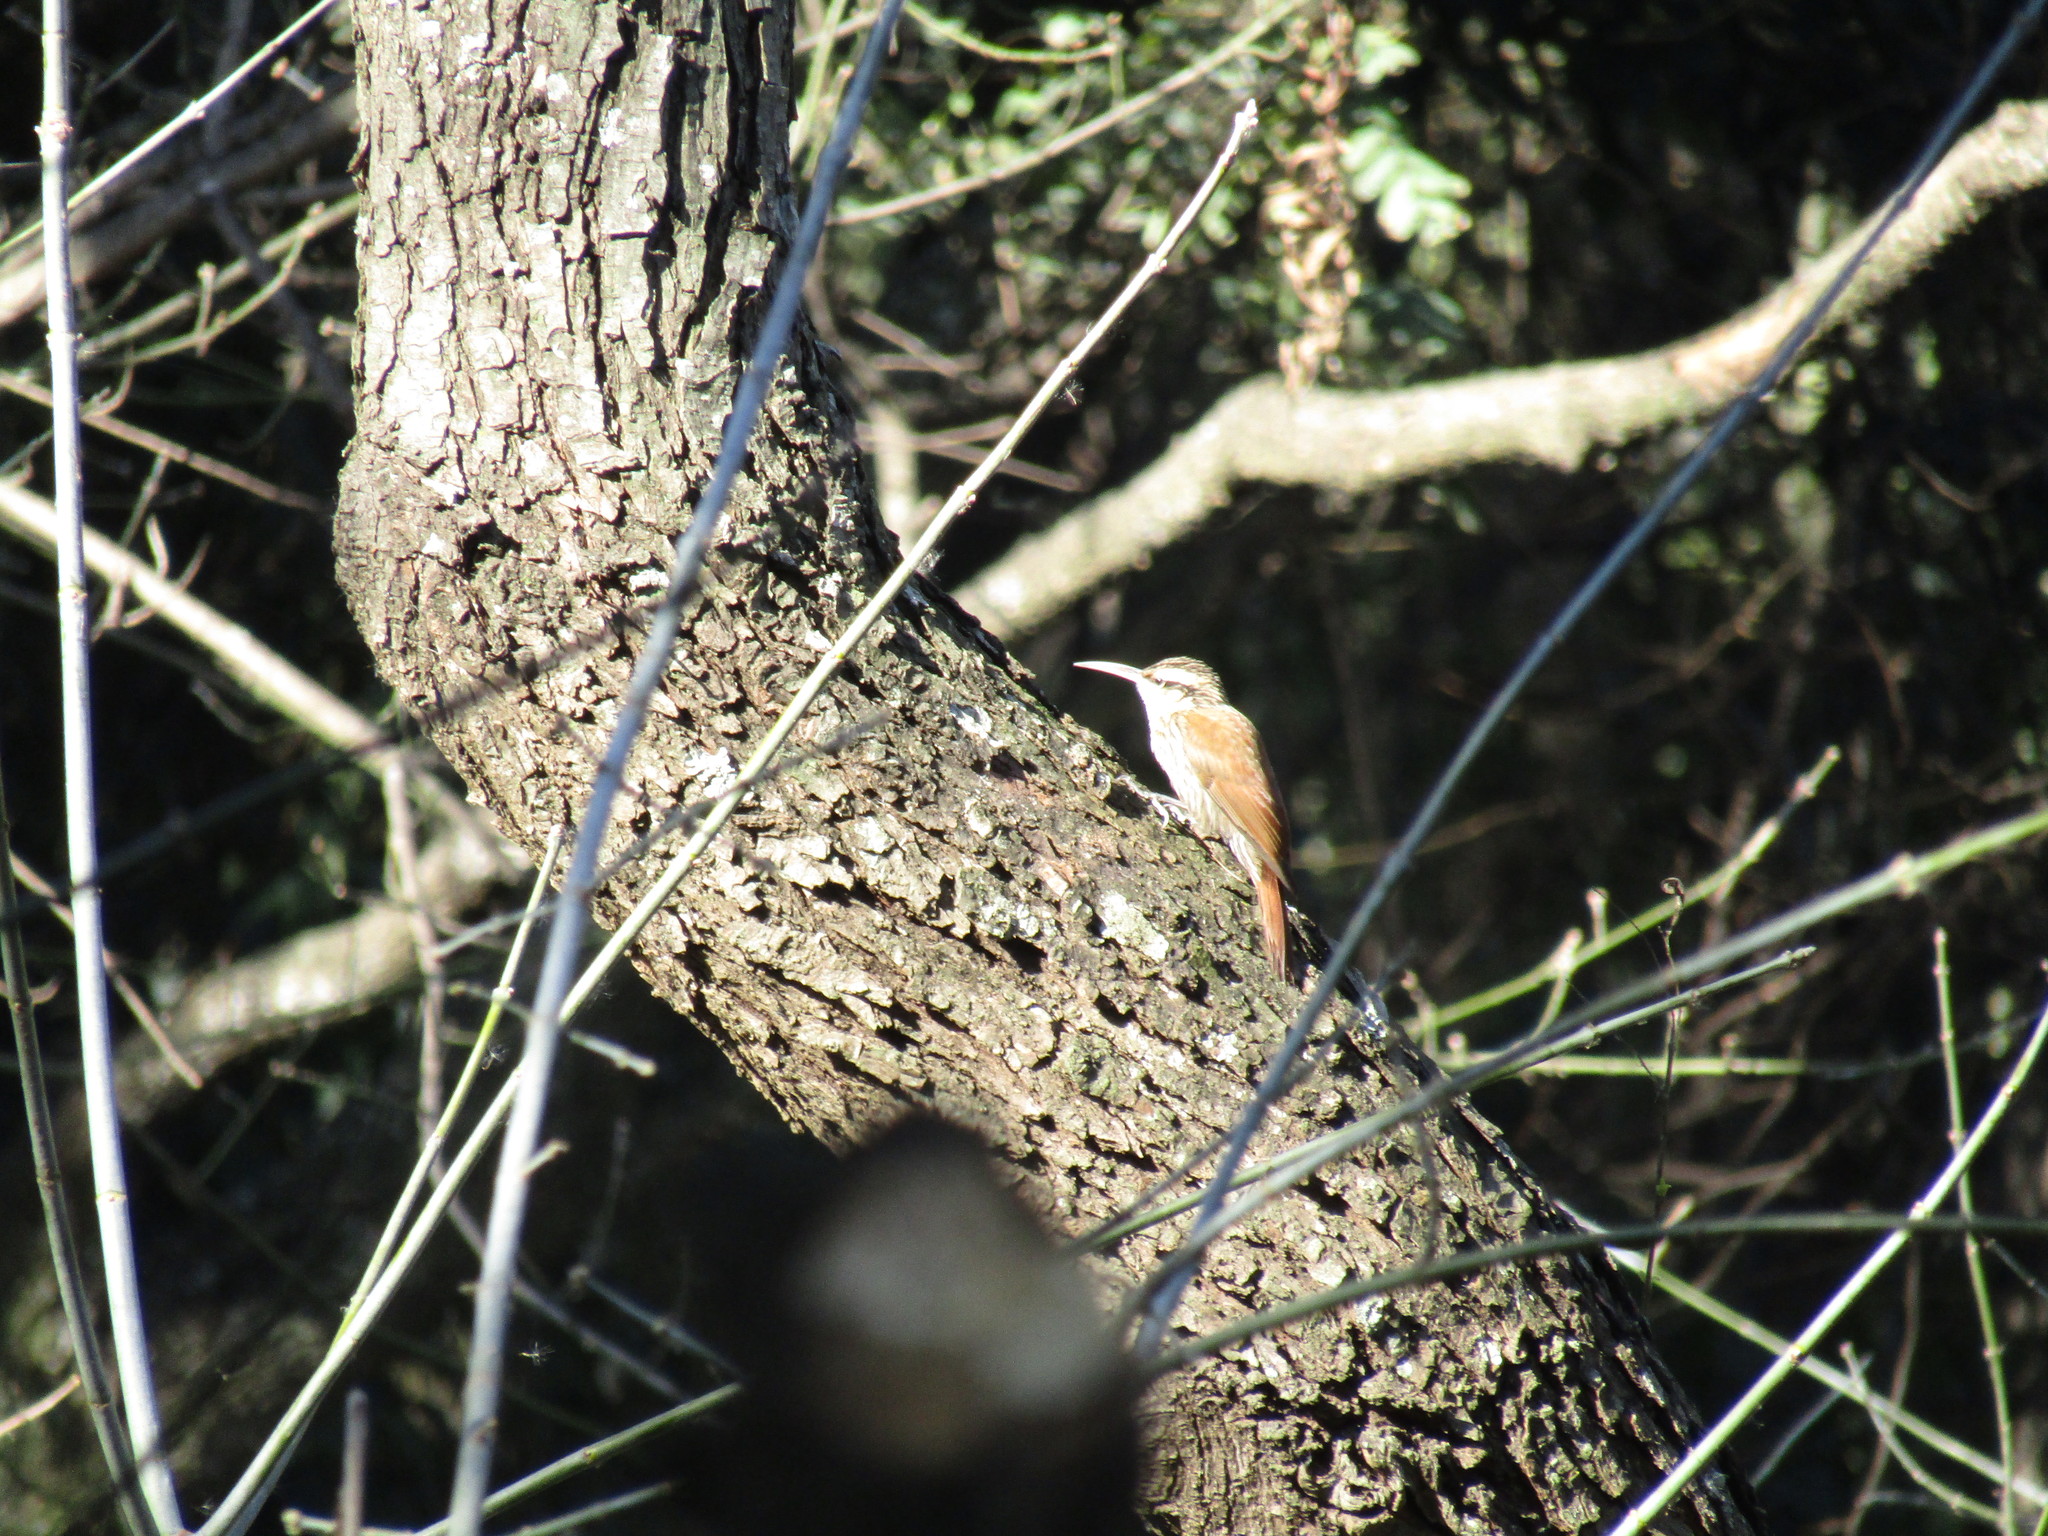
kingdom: Animalia
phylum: Chordata
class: Aves
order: Passeriformes
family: Furnariidae
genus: Lepidocolaptes
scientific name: Lepidocolaptes angustirostris
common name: Narrow-billed woodcreeper
